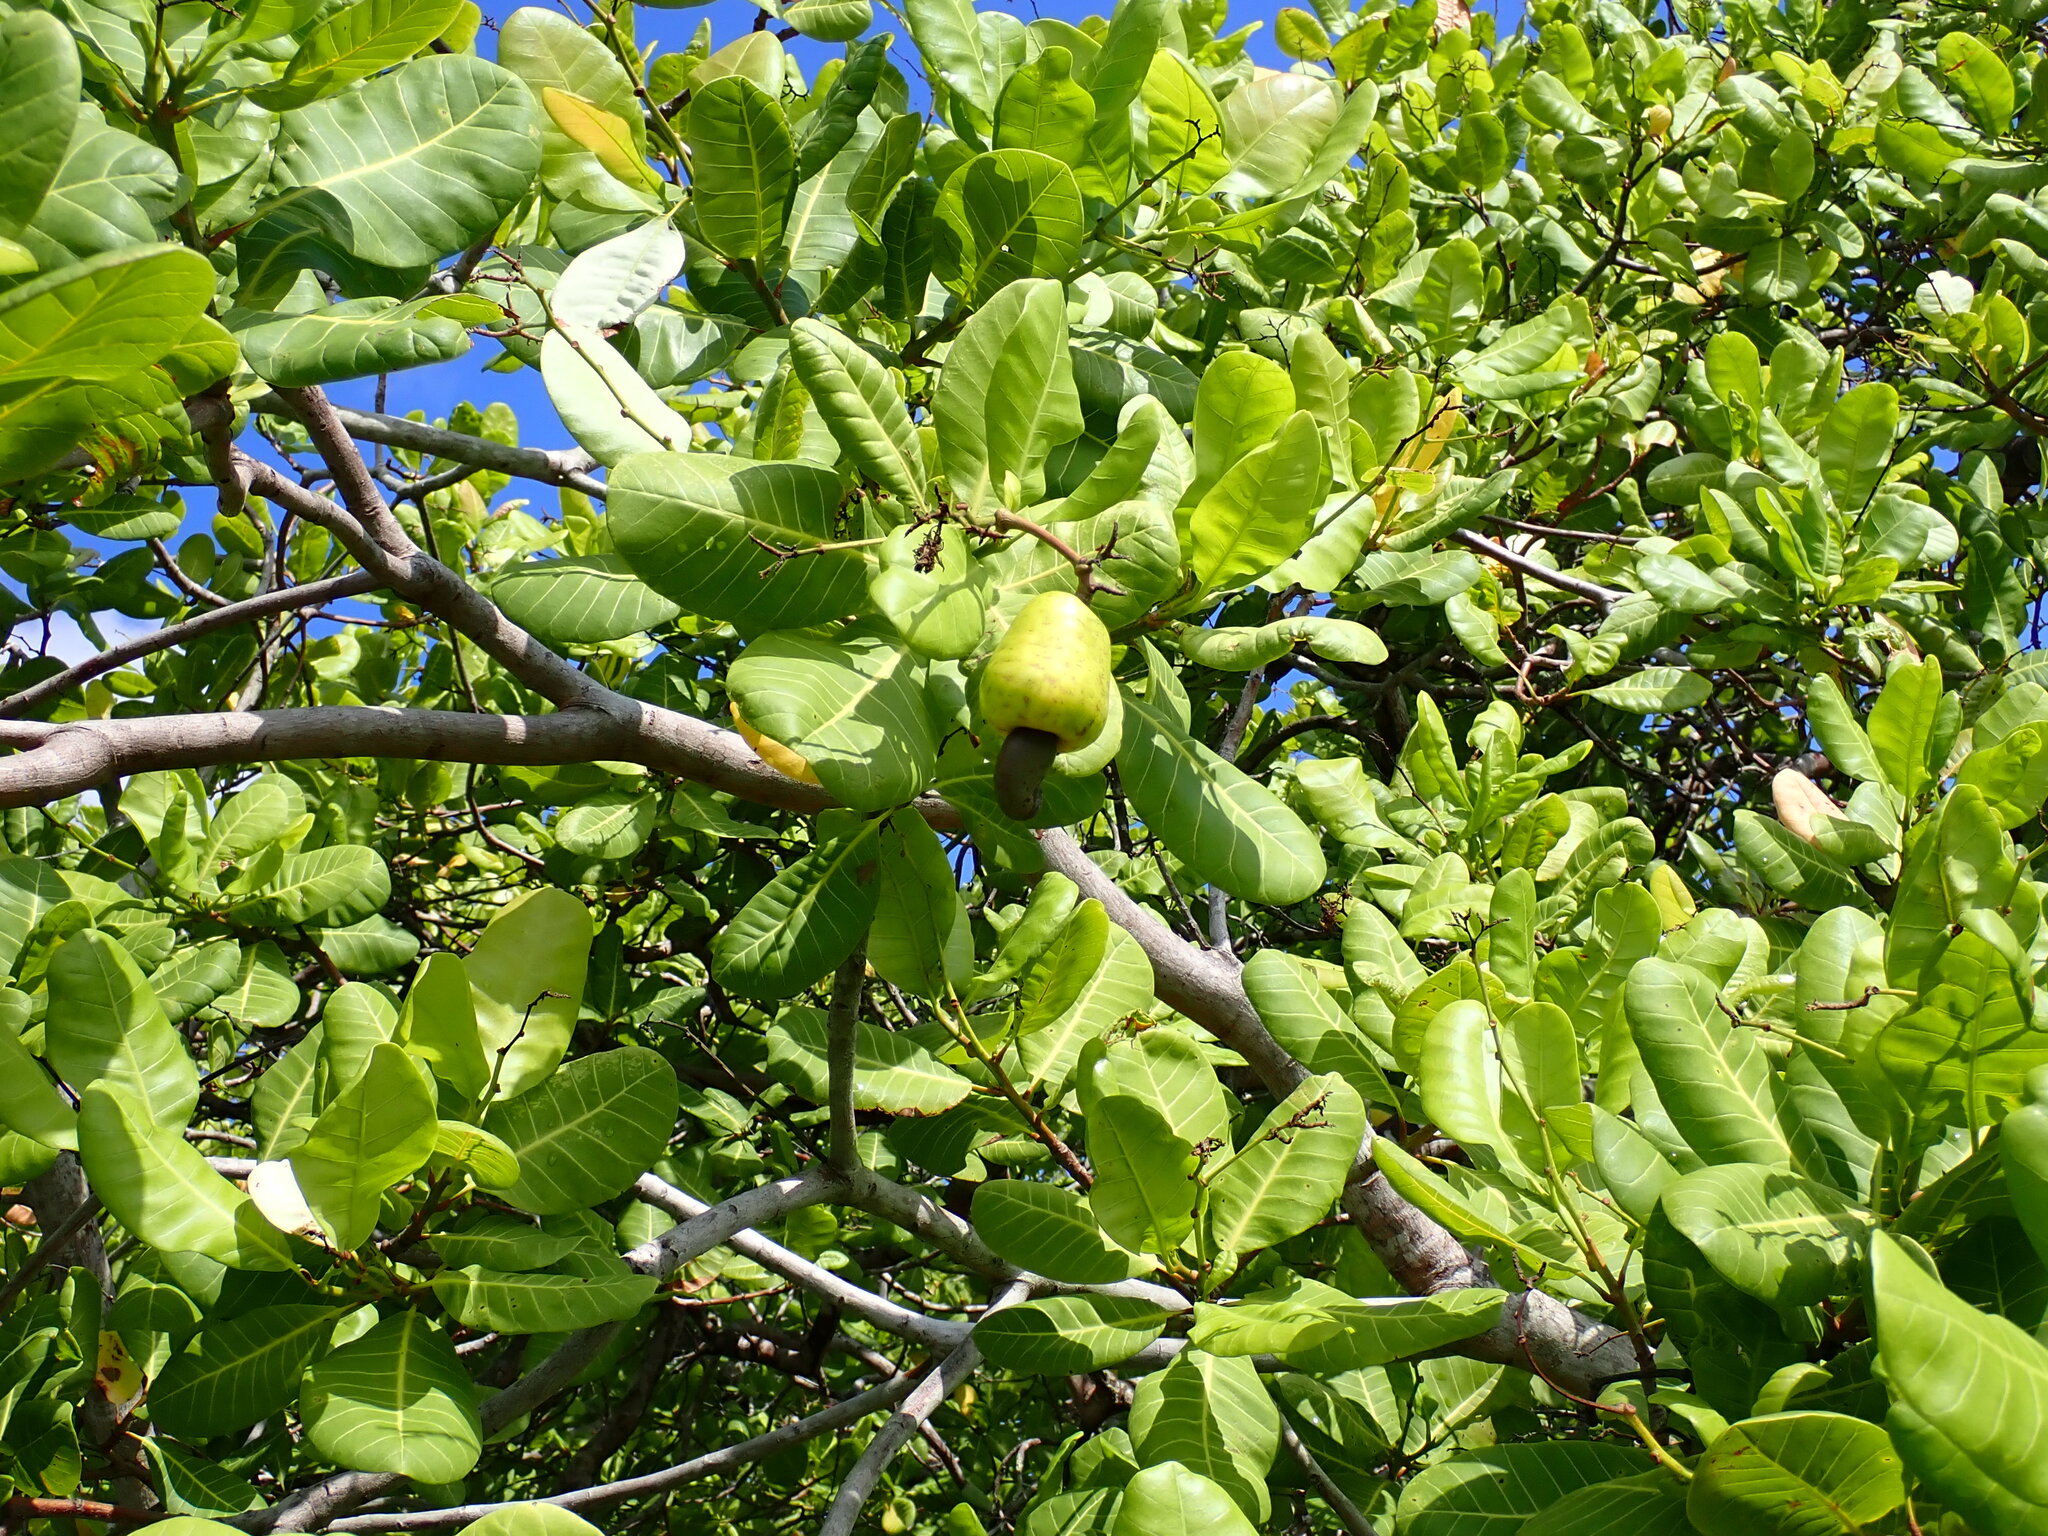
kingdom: Plantae
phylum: Tracheophyta
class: Magnoliopsida
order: Sapindales
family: Anacardiaceae
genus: Anacardium
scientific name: Anacardium occidentale
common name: Cashew
